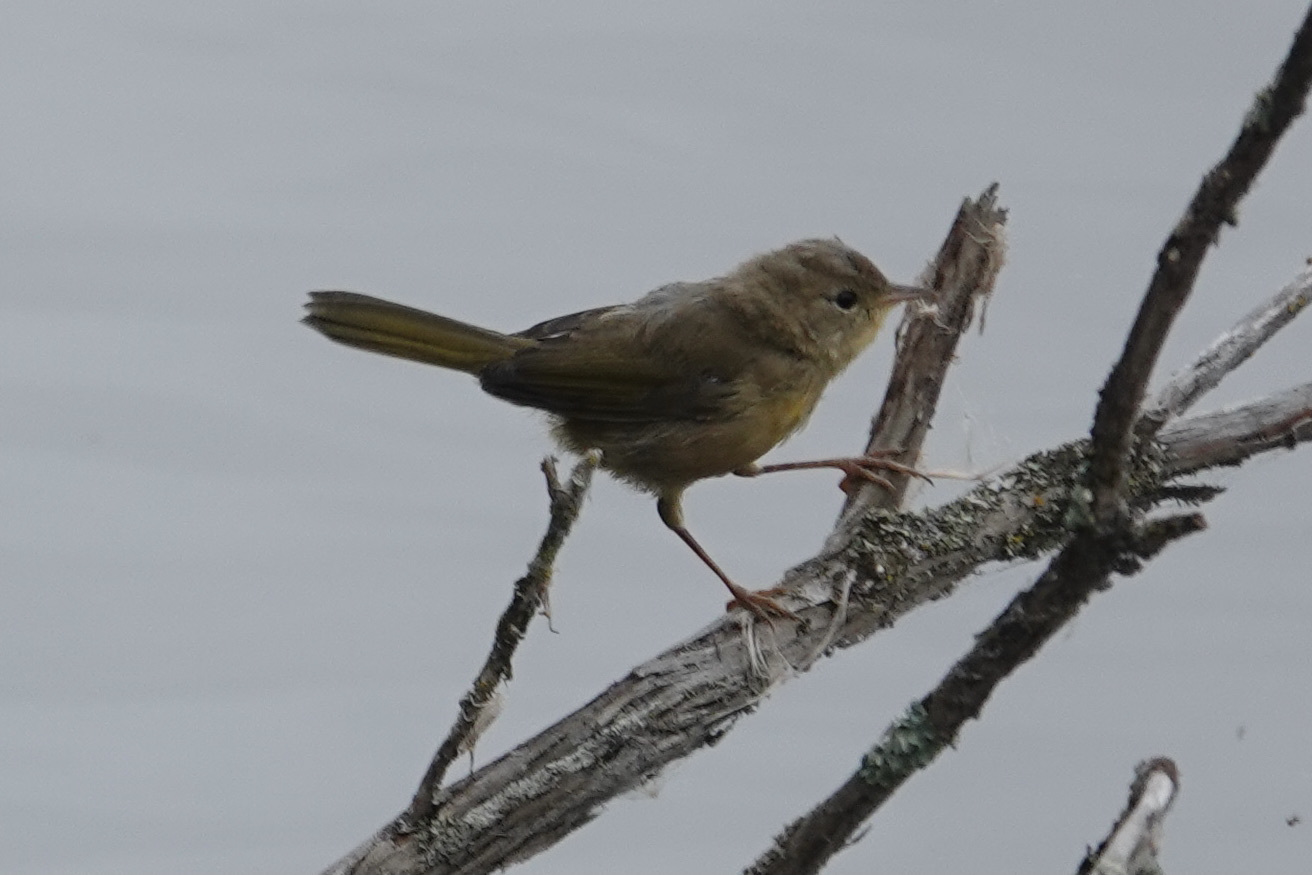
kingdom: Animalia
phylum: Chordata
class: Aves
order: Passeriformes
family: Parulidae
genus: Geothlypis
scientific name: Geothlypis trichas
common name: Common yellowthroat
